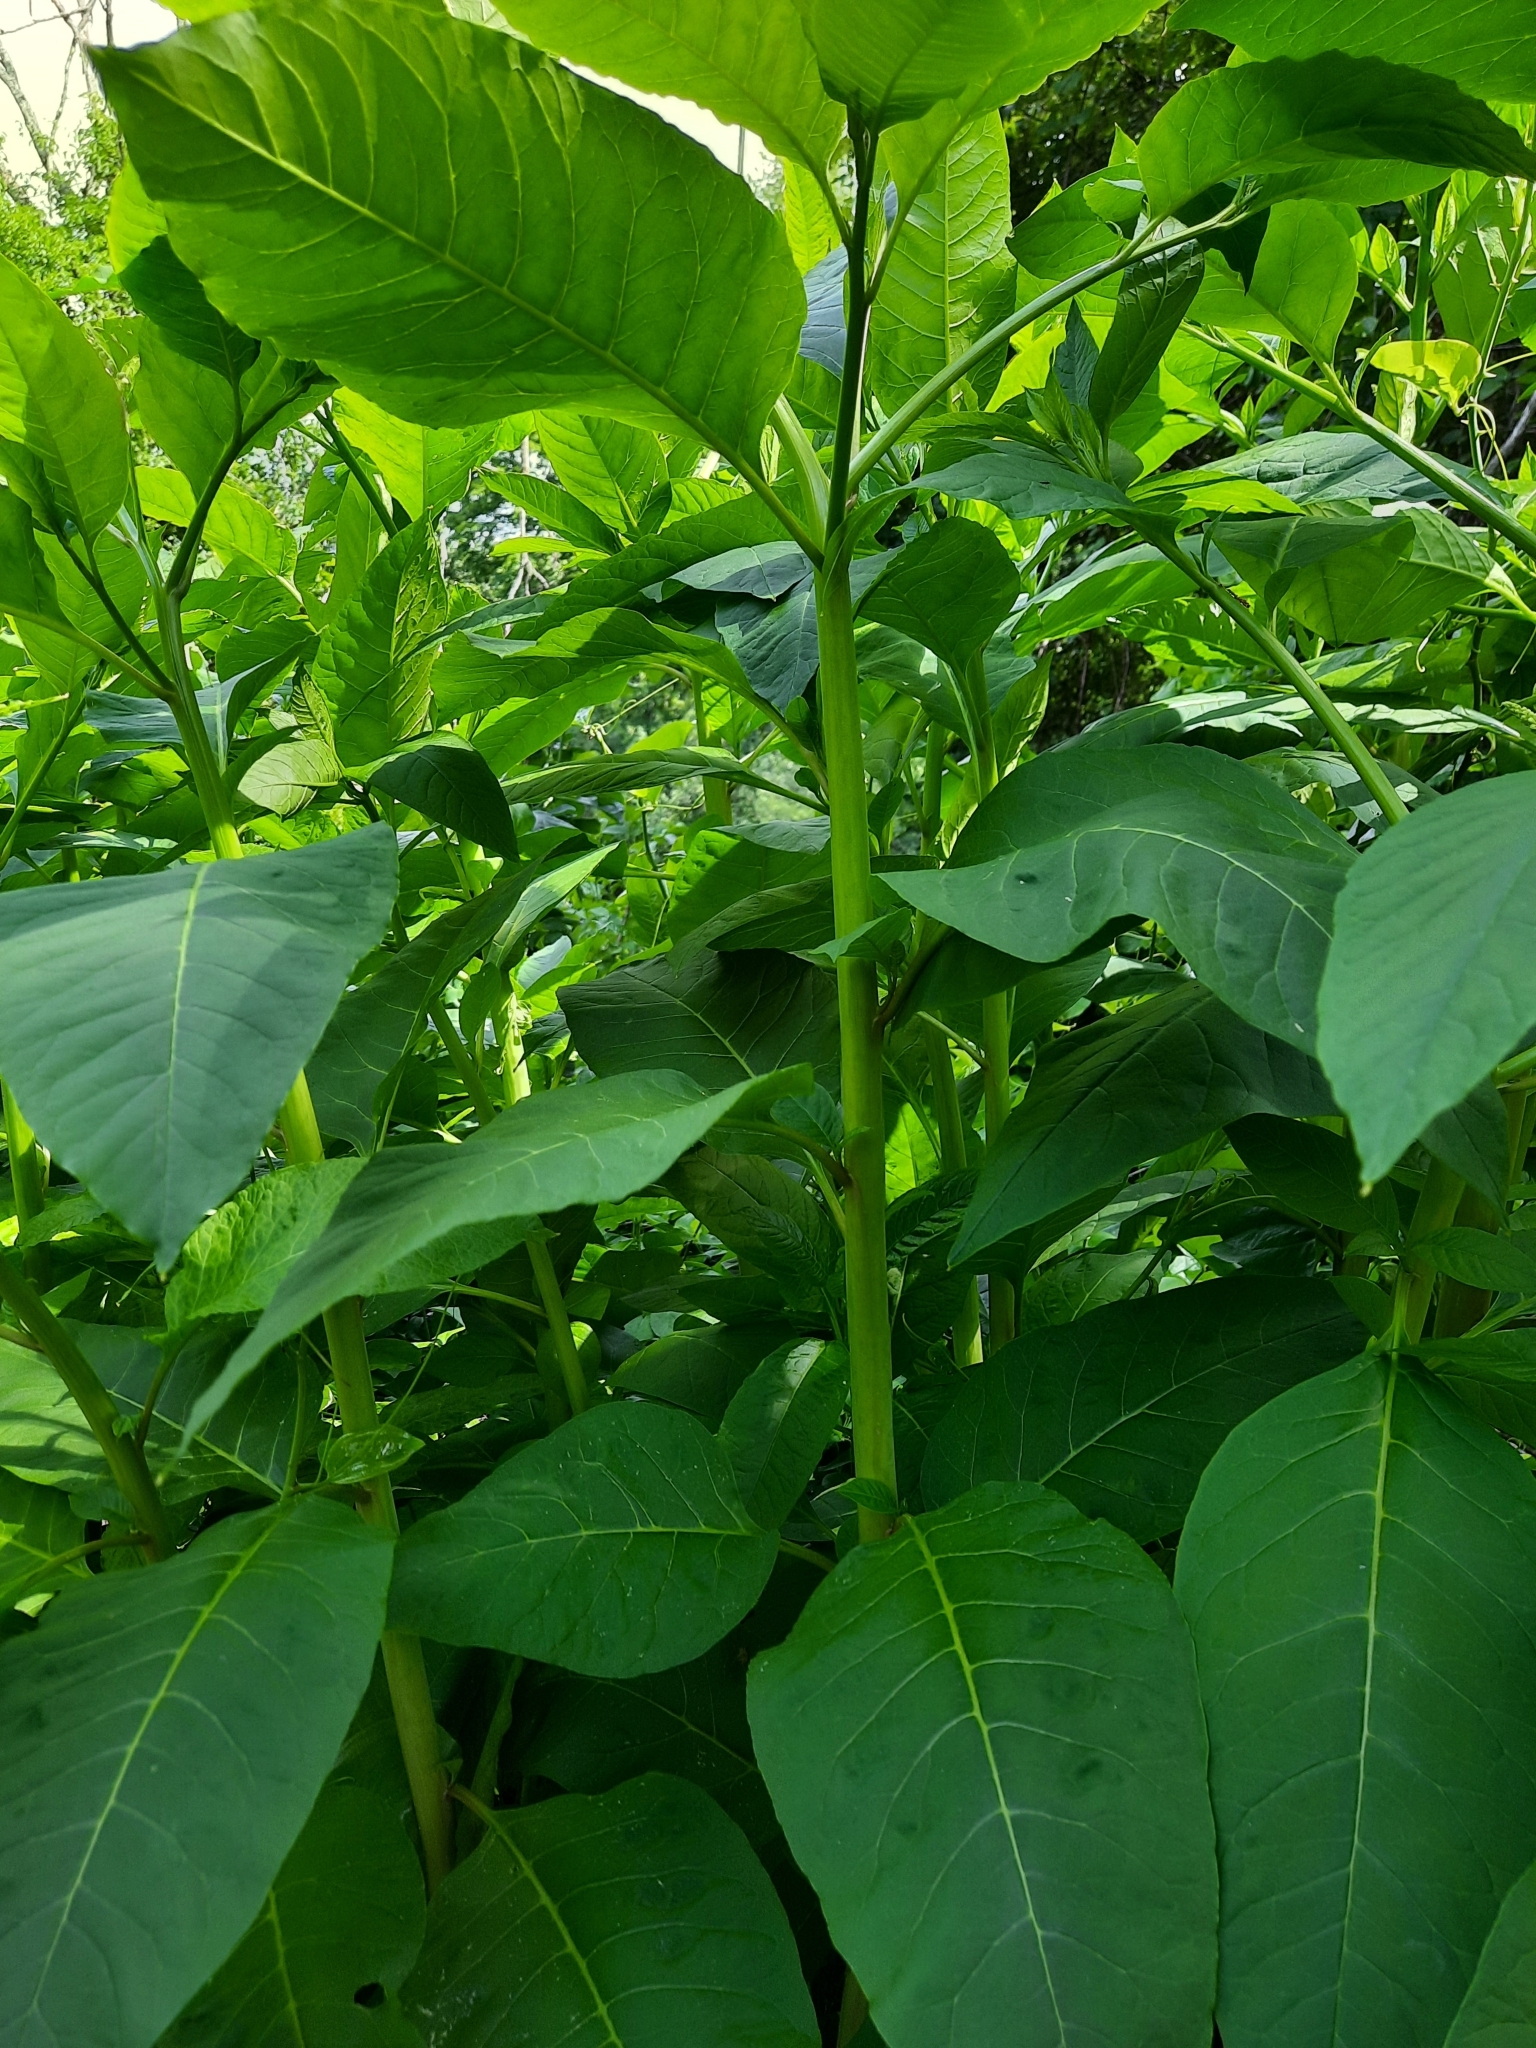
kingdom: Plantae
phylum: Tracheophyta
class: Magnoliopsida
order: Caryophyllales
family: Phytolaccaceae
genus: Phytolacca
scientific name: Phytolacca americana
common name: American pokeweed
